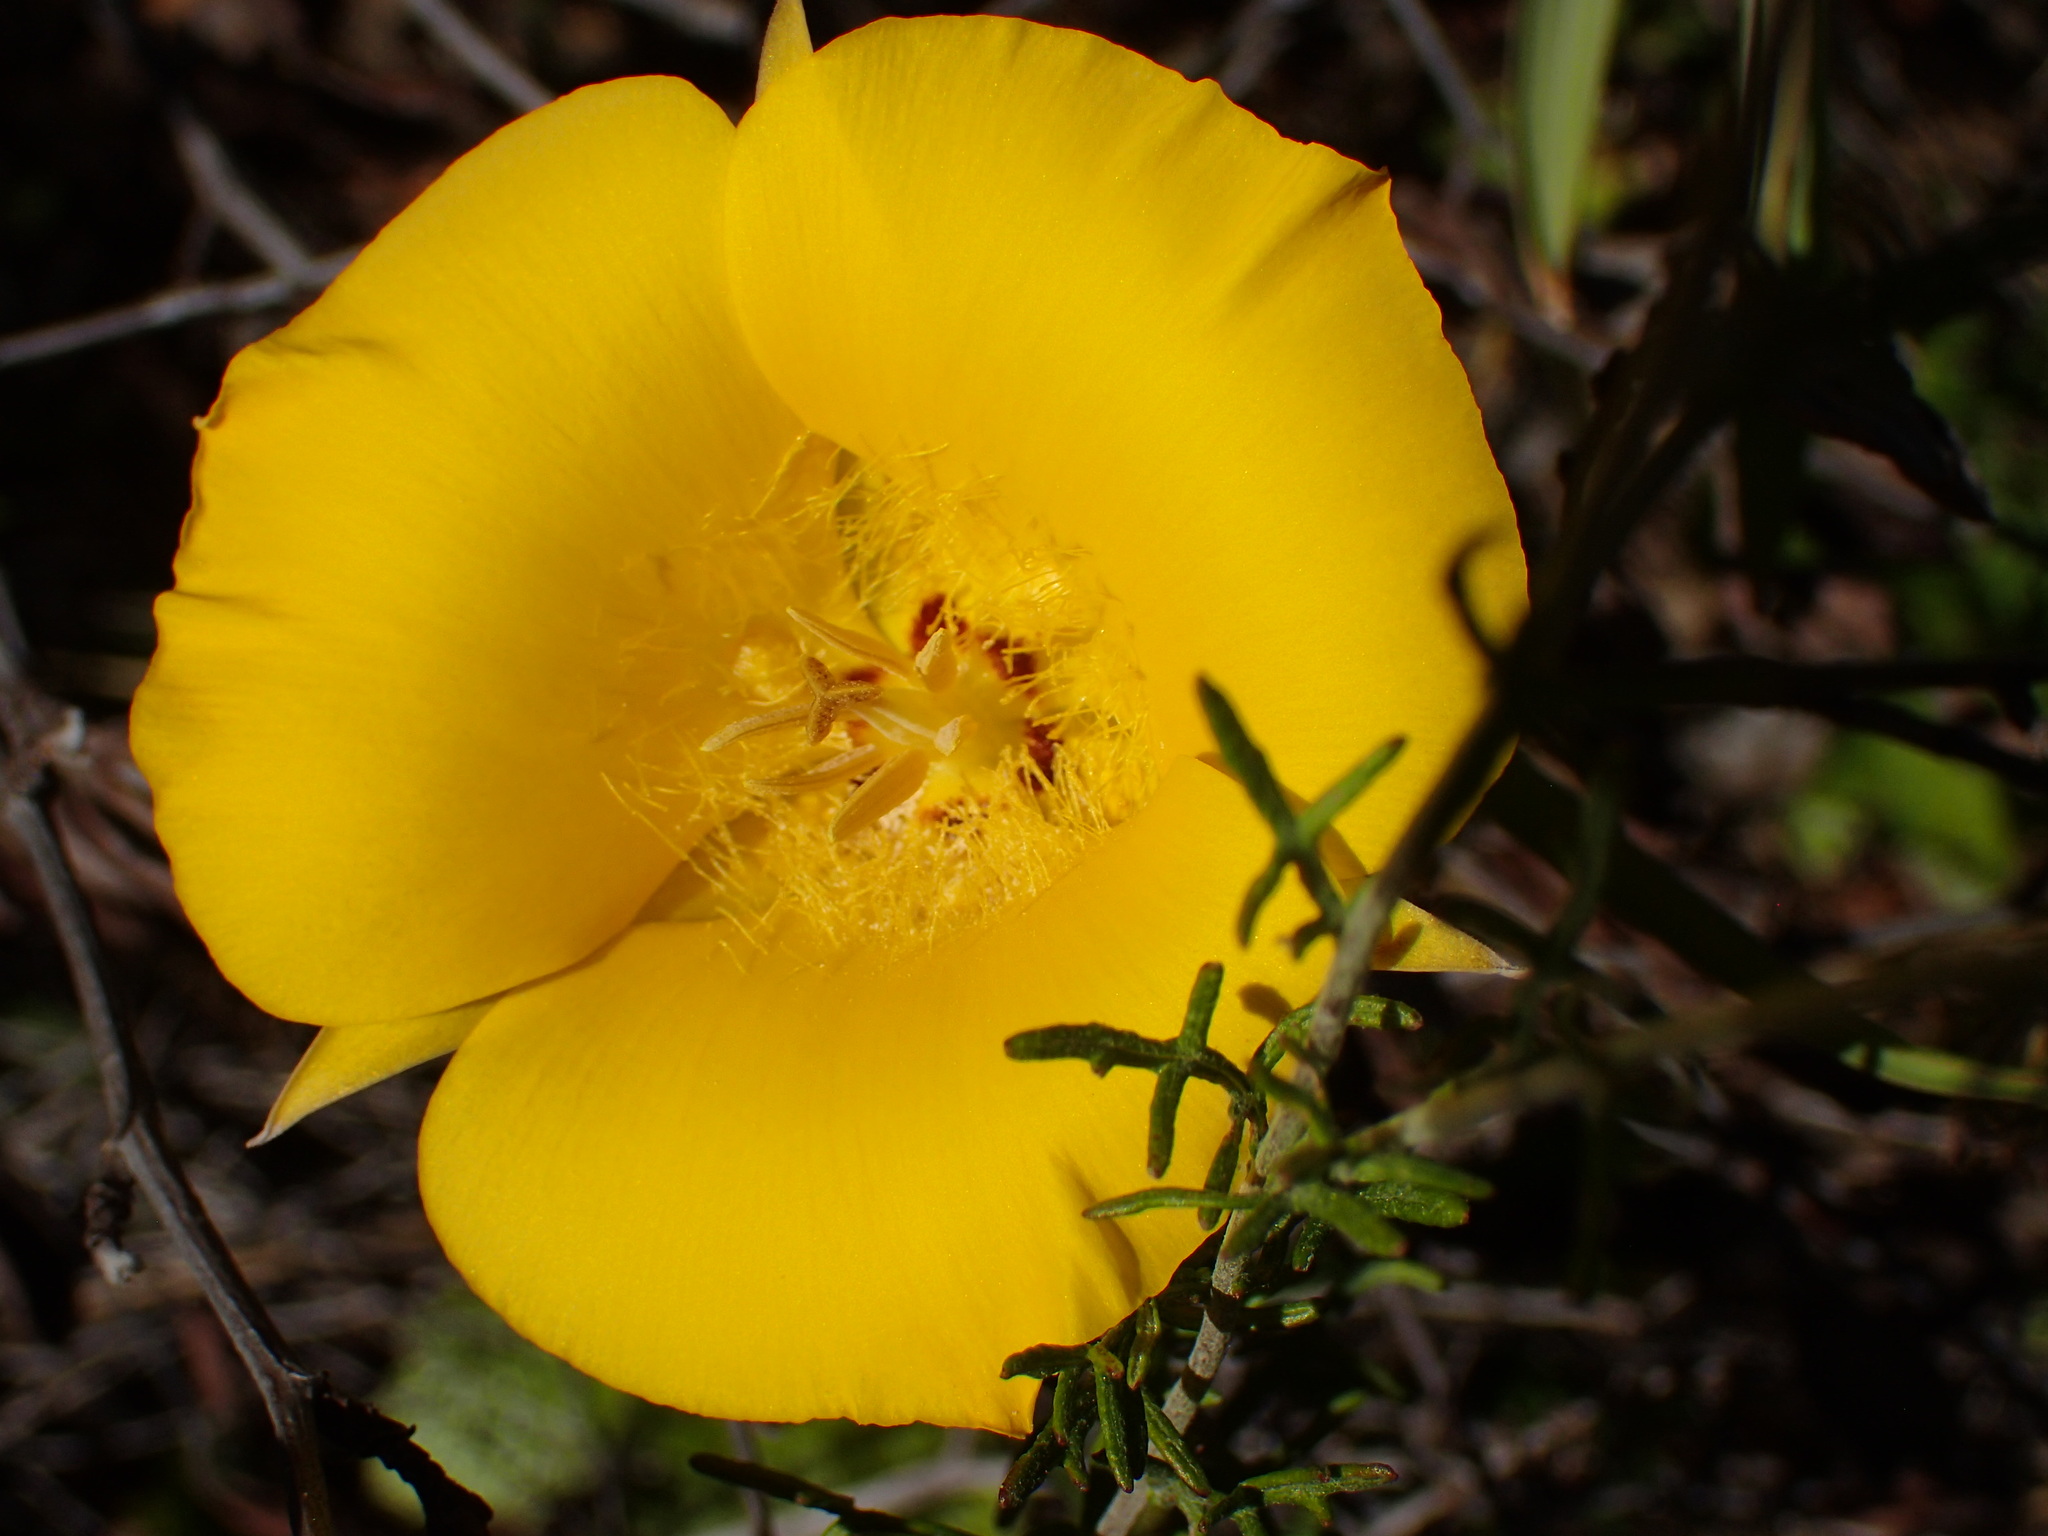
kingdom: Plantae
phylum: Tracheophyta
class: Liliopsida
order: Liliales
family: Liliaceae
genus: Calochortus
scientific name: Calochortus clavatus
